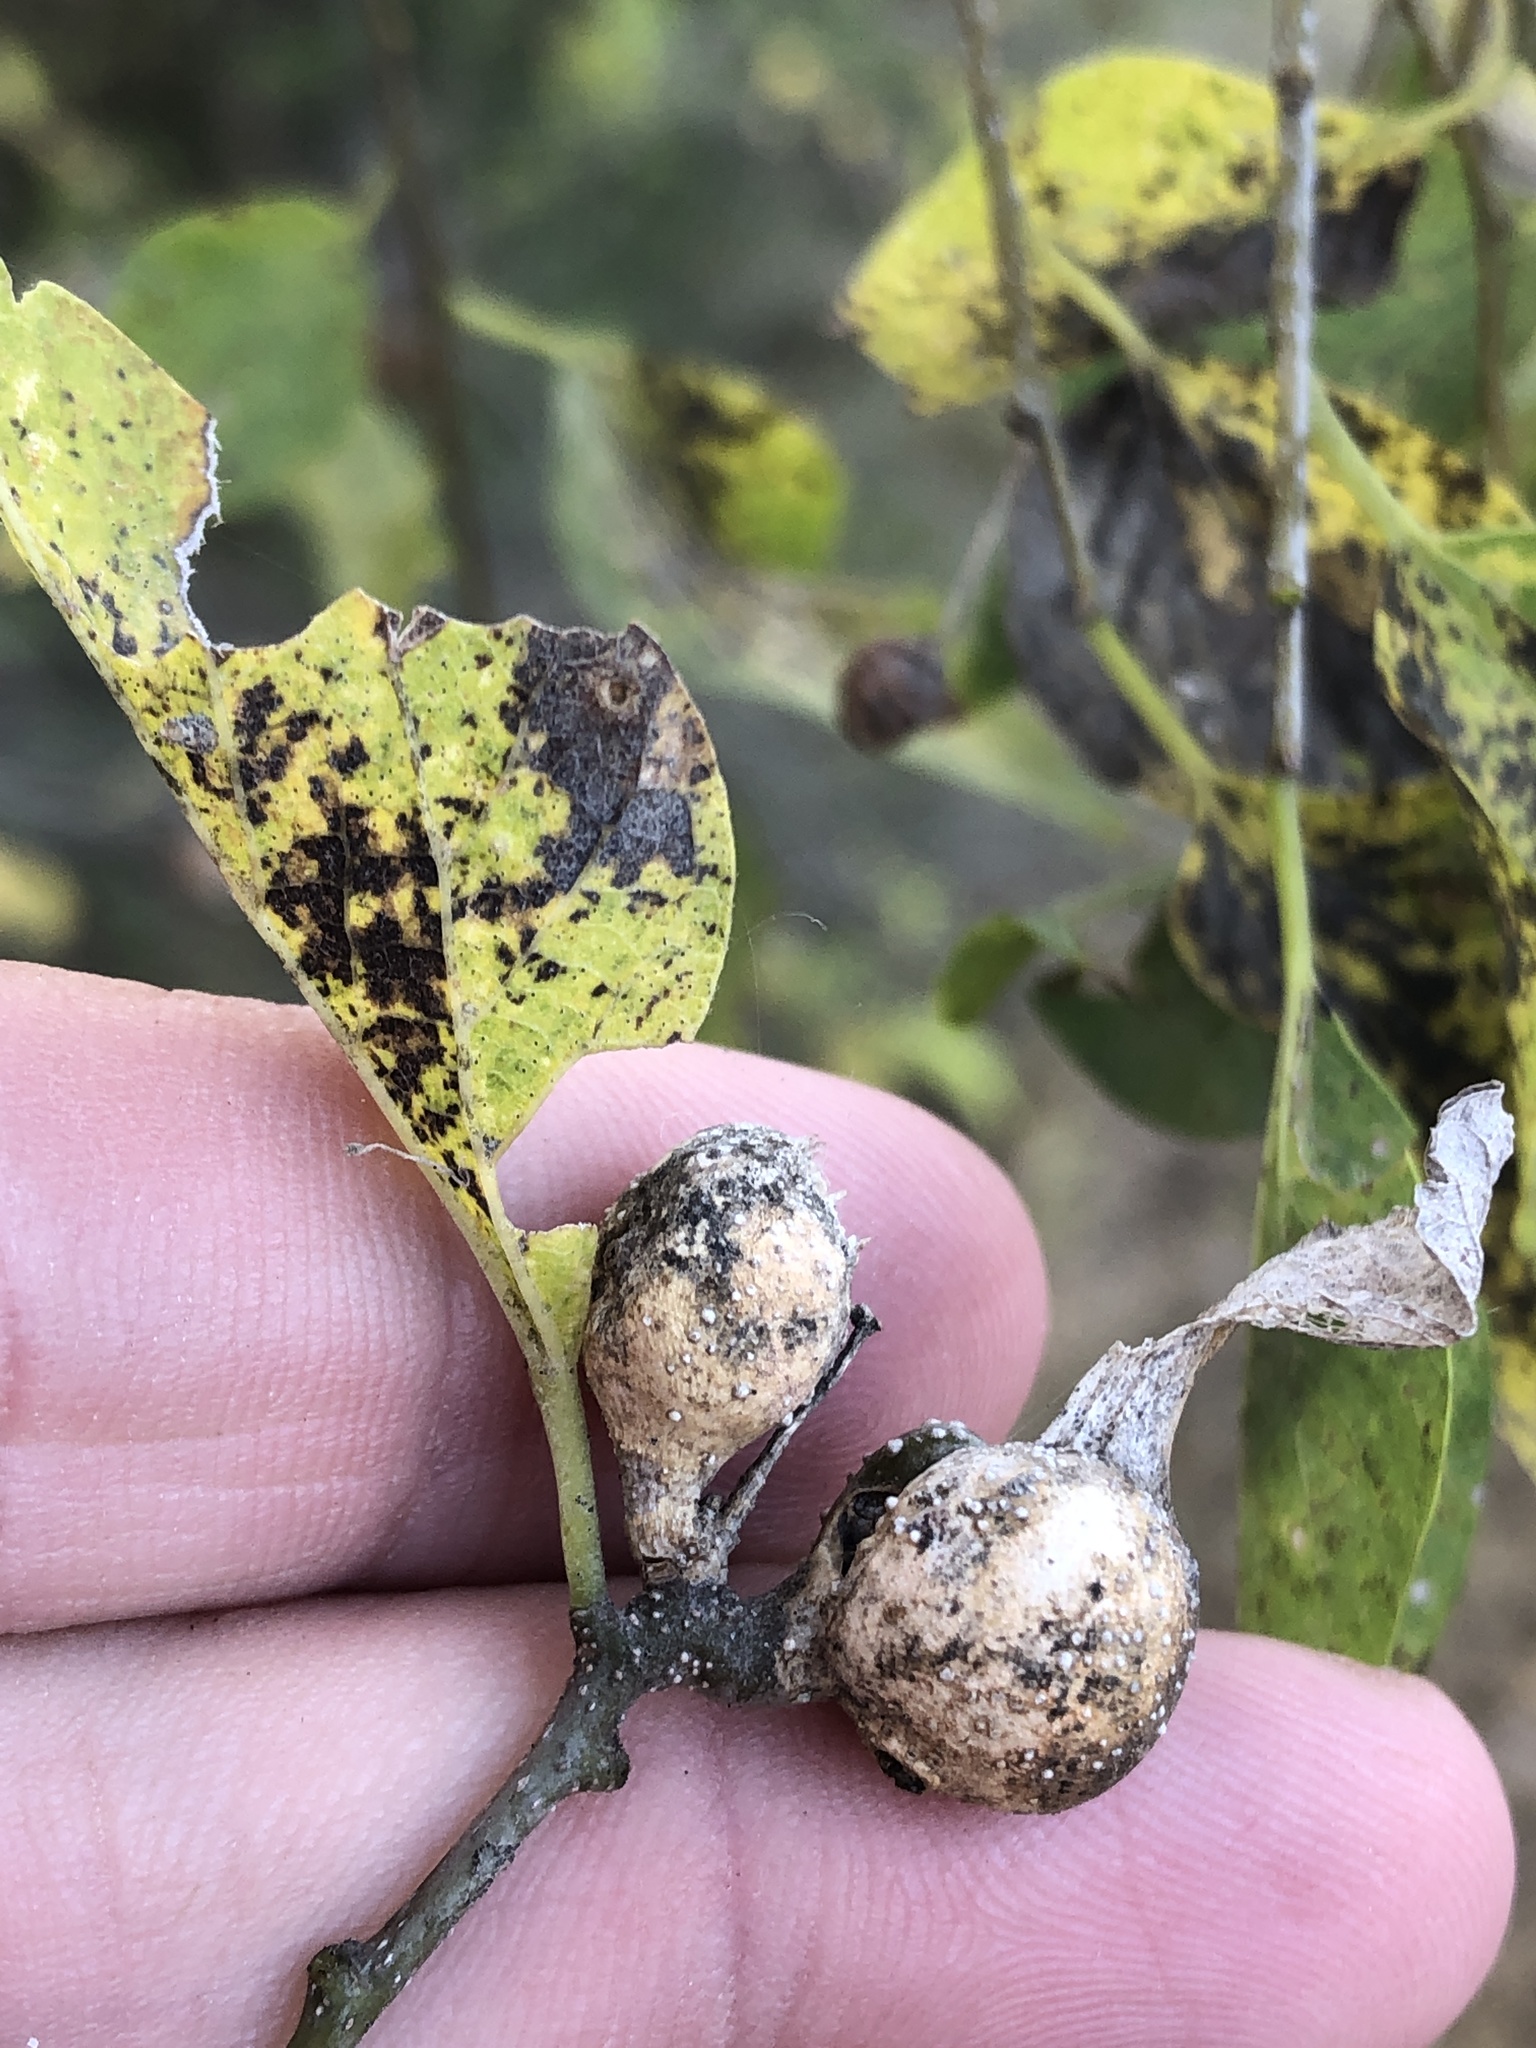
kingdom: Animalia
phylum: Arthropoda
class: Insecta
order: Hemiptera
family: Aphalaridae
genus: Pachypsylla
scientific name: Pachypsylla venusta
